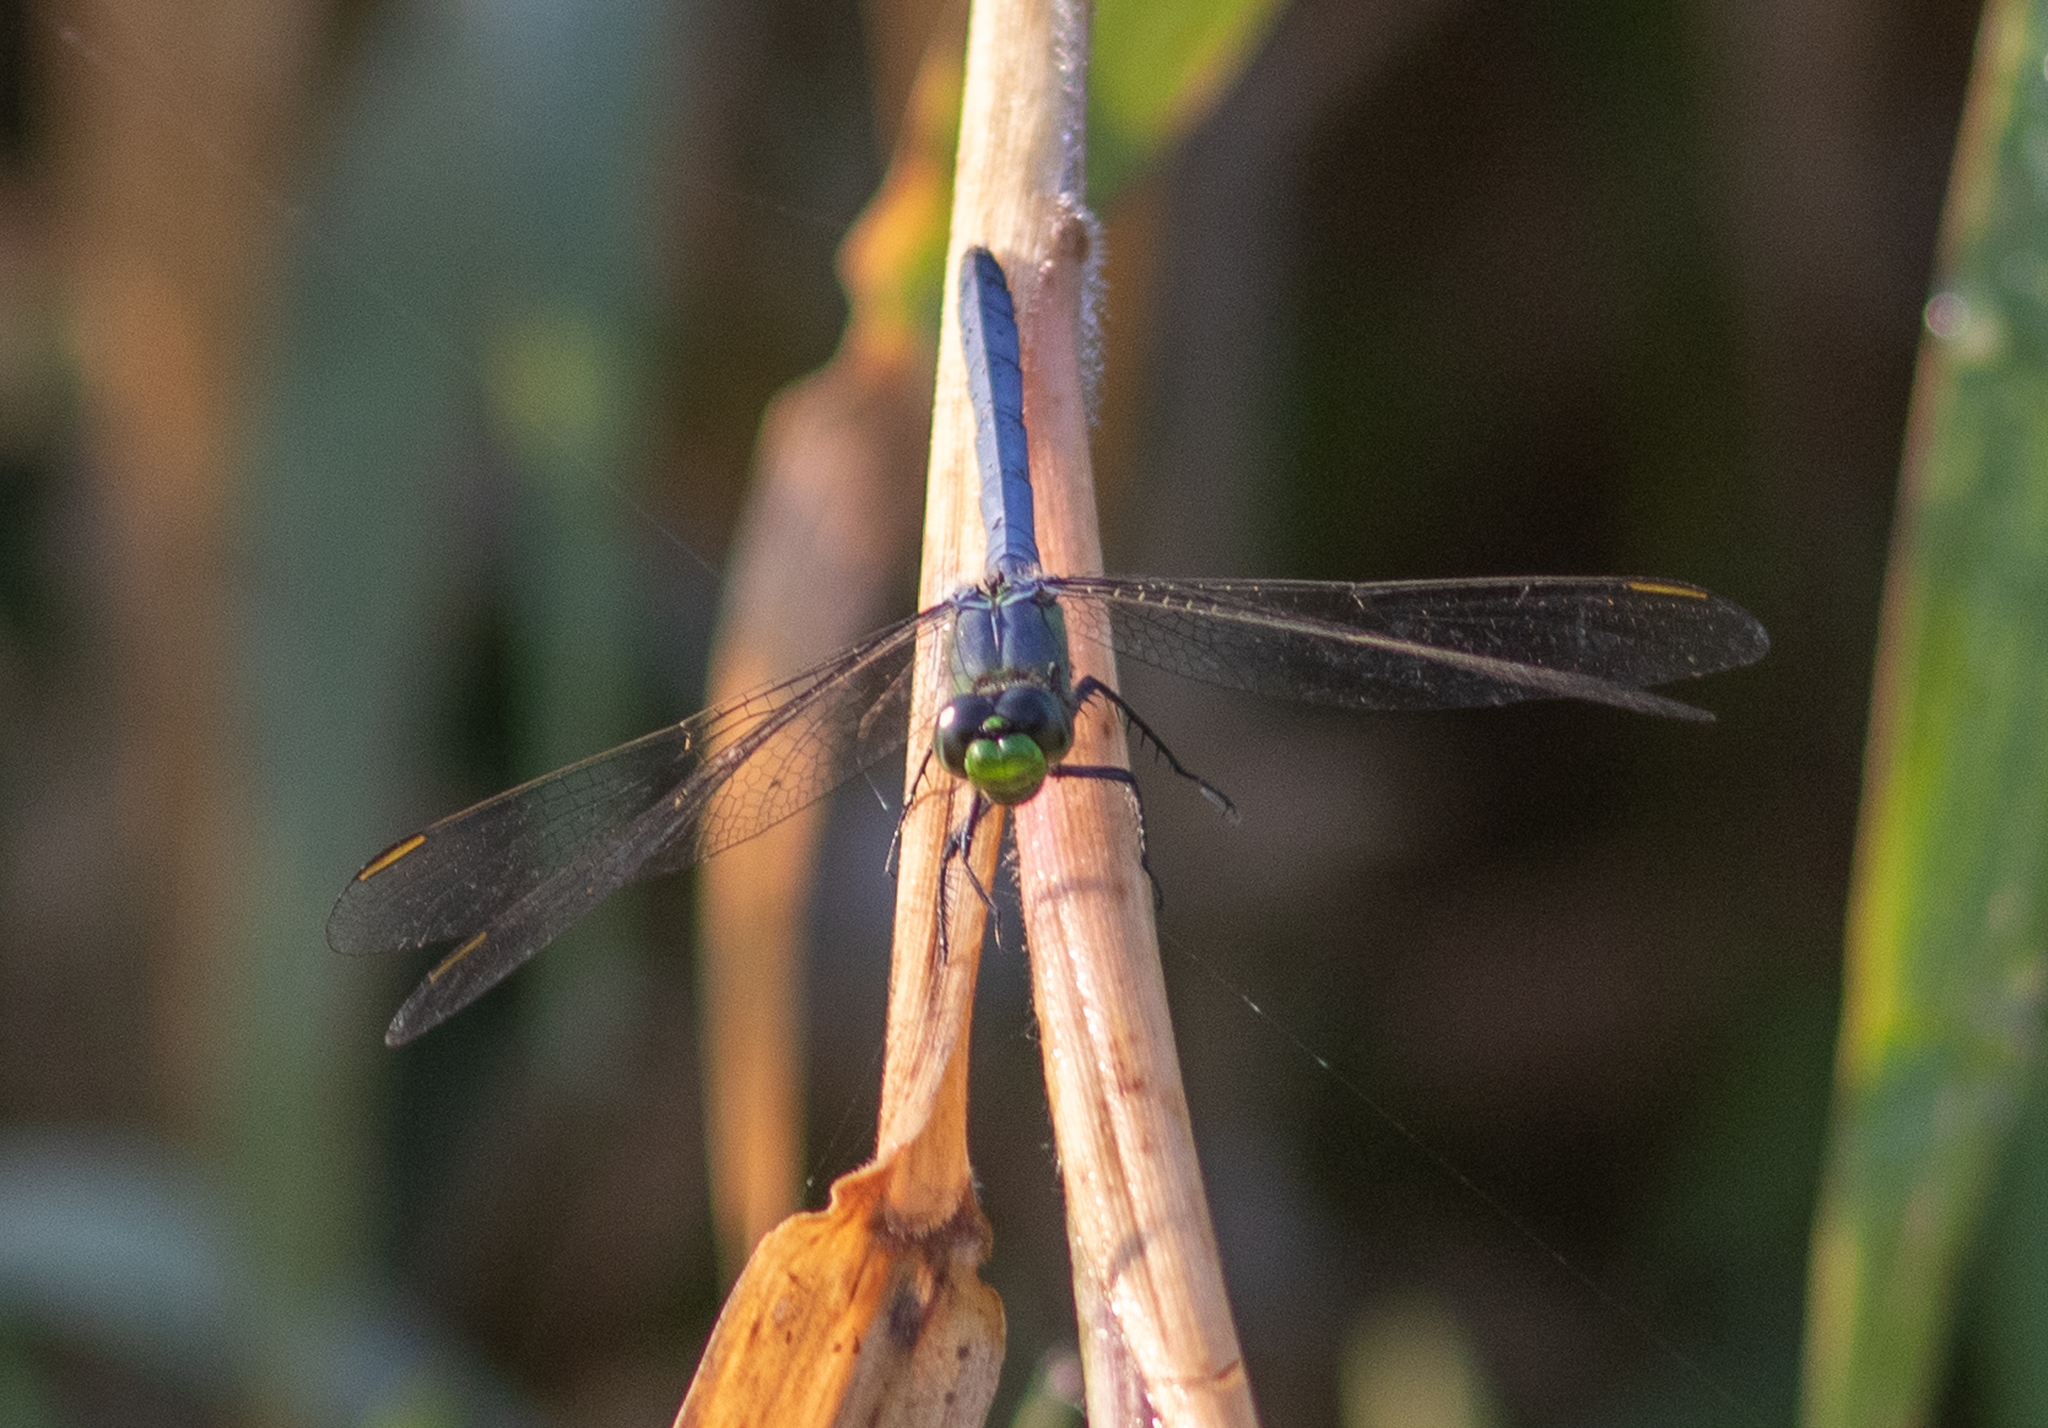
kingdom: Animalia
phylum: Arthropoda
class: Insecta
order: Odonata
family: Libellulidae
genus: Erythemis
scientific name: Erythemis simplicicollis
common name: Eastern pondhawk
